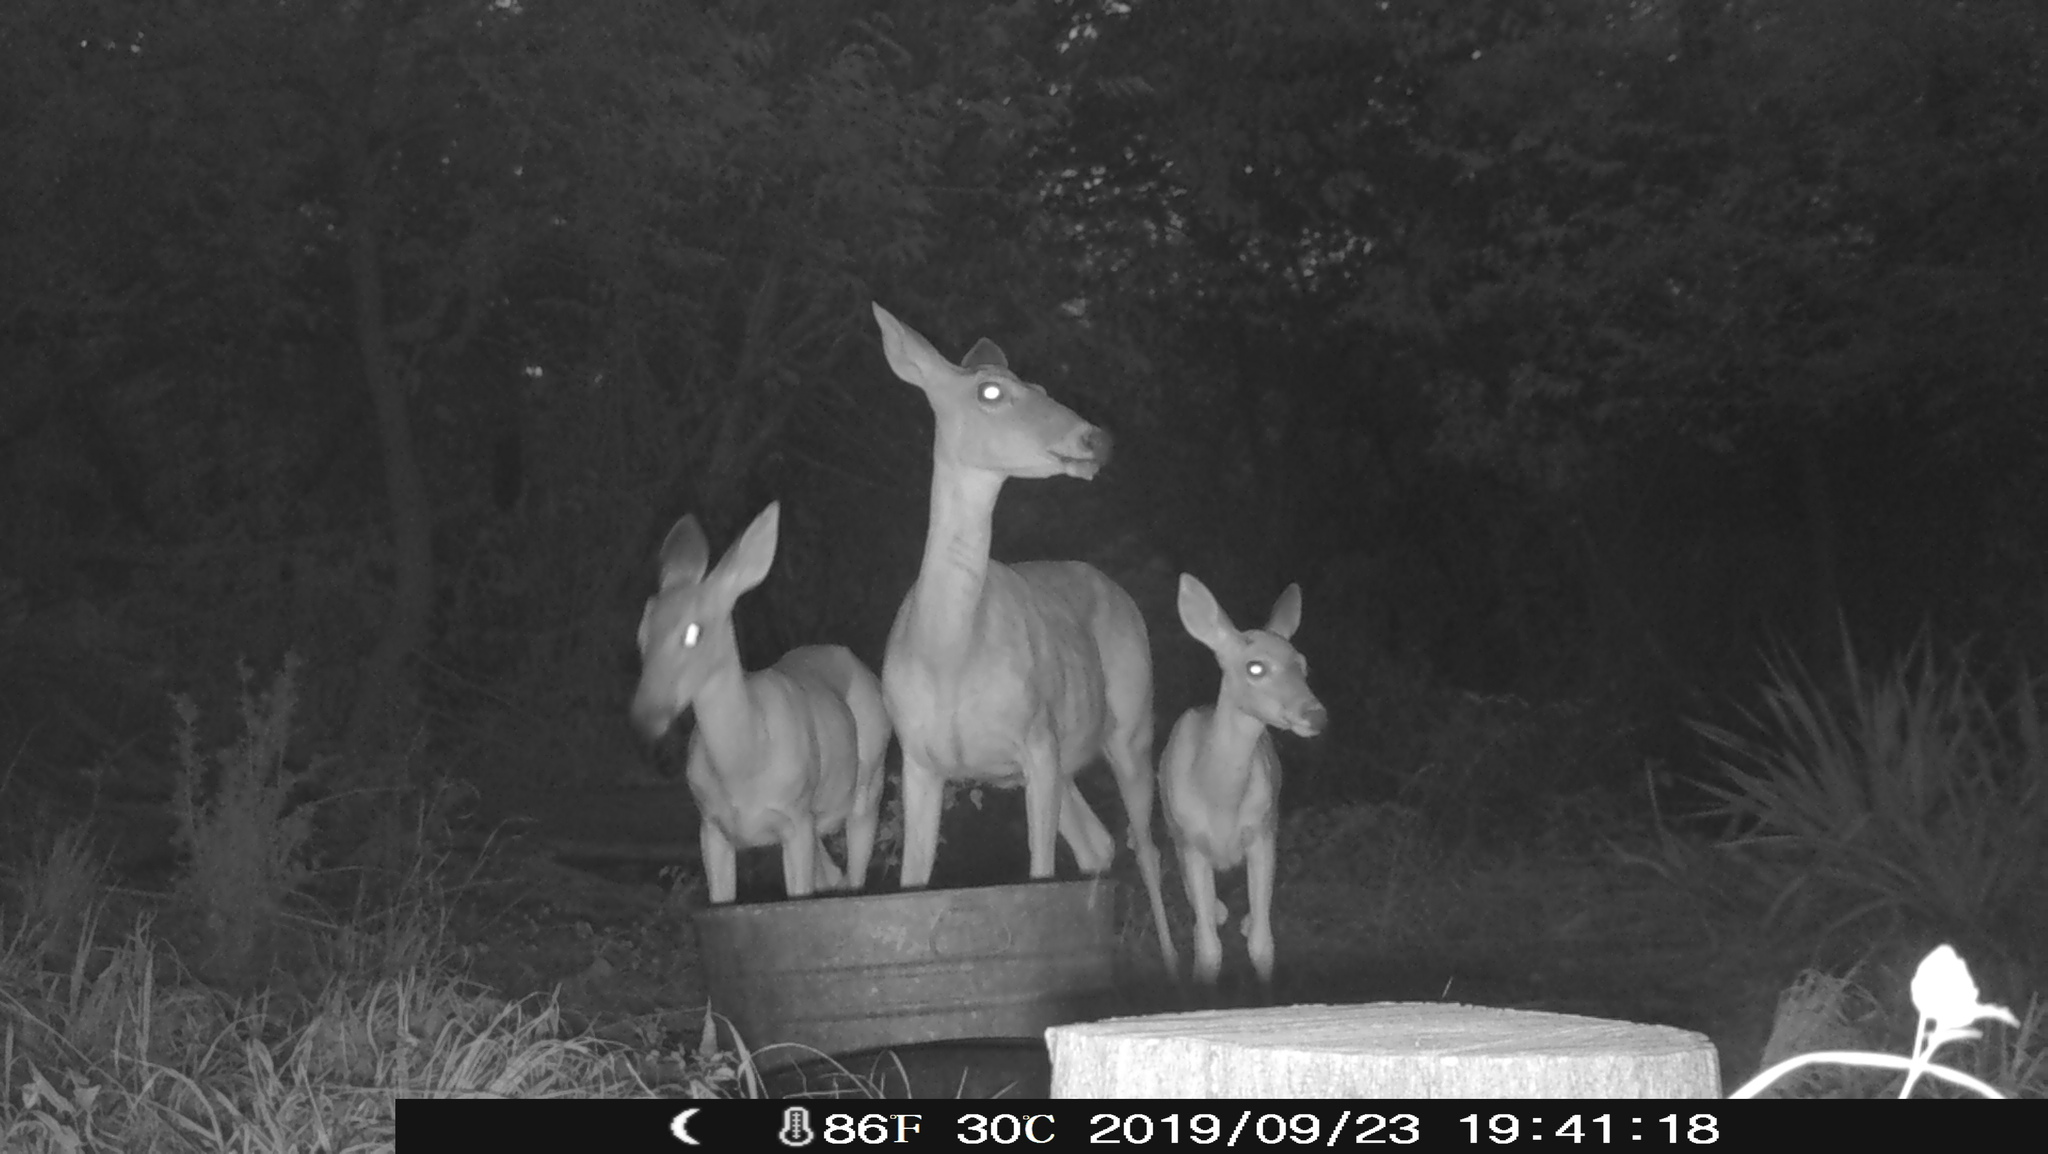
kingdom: Animalia
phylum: Chordata
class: Mammalia
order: Artiodactyla
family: Cervidae
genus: Odocoileus
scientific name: Odocoileus virginianus
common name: White-tailed deer
